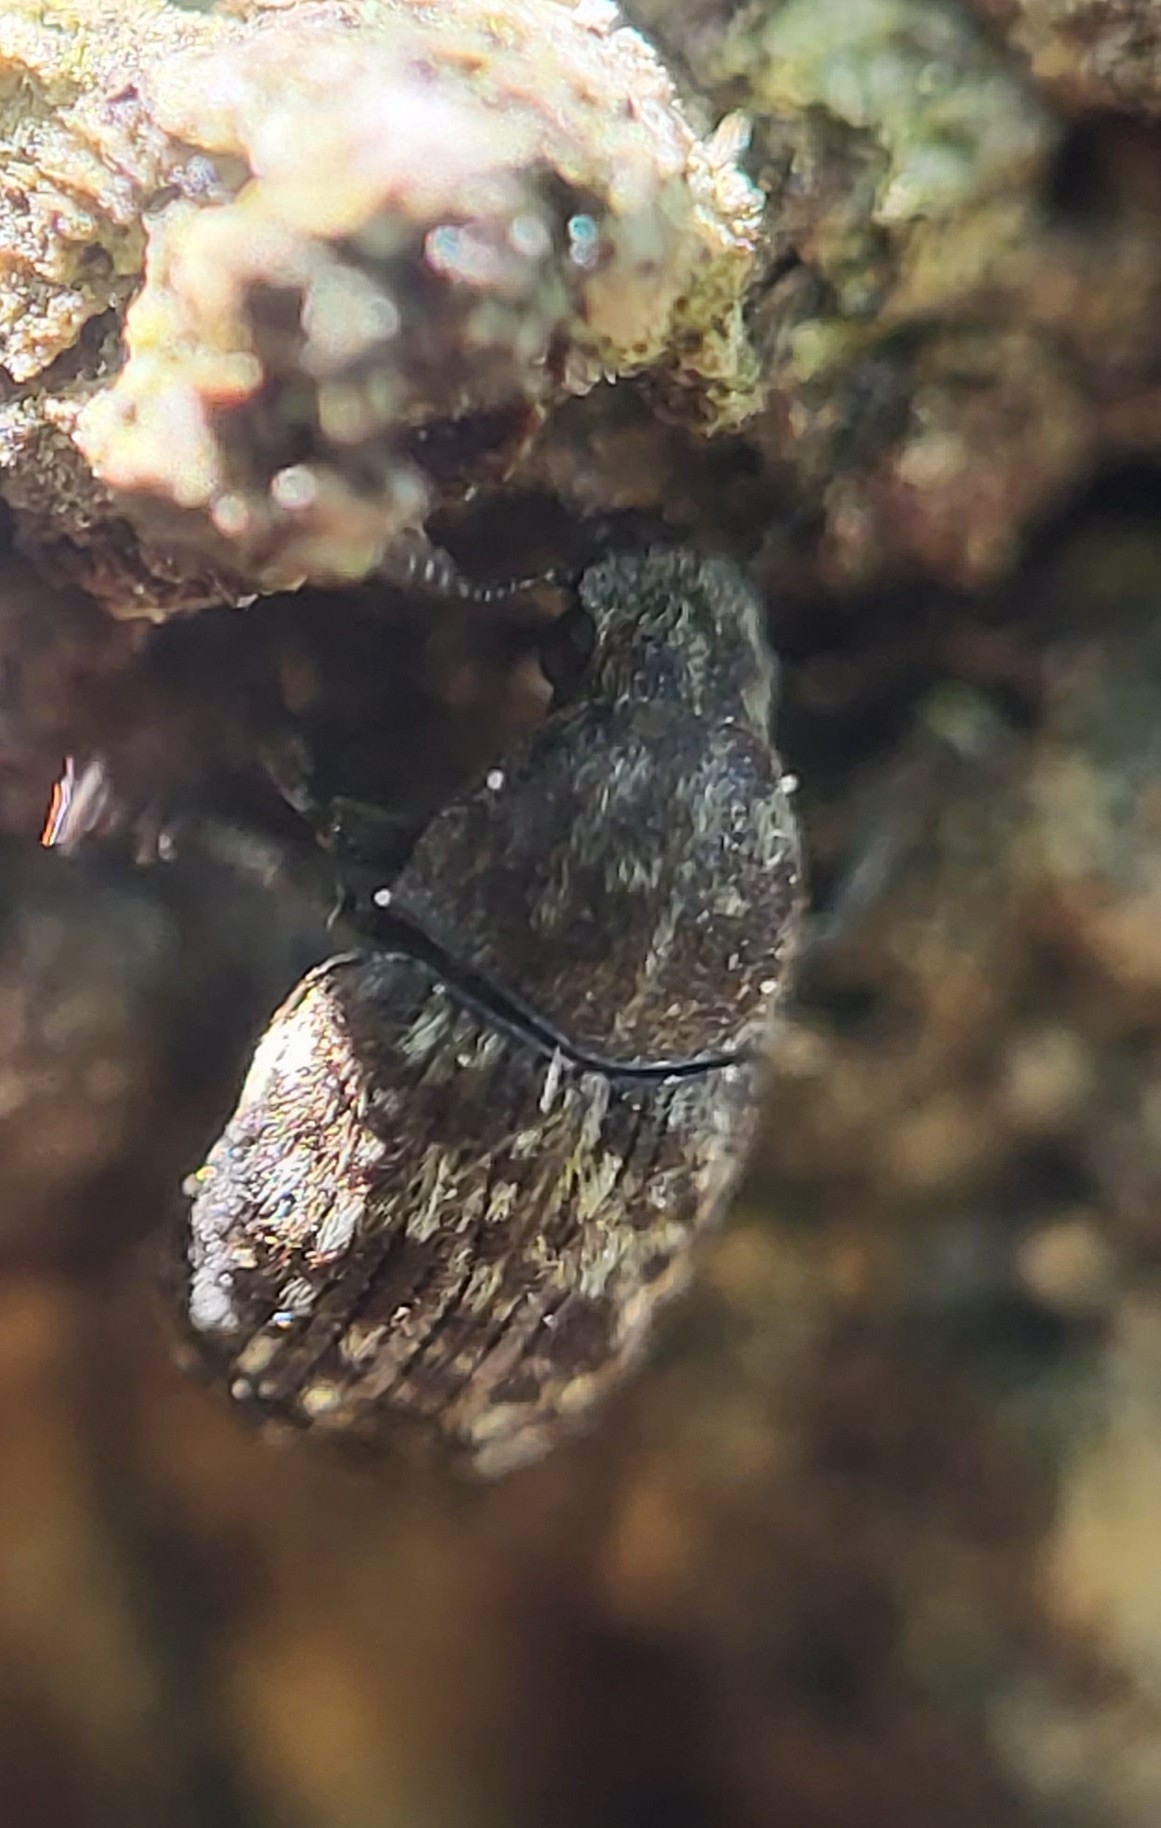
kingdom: Animalia
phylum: Arthropoda
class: Insecta
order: Coleoptera
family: Anthribidae
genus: Anthribus
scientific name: Anthribus nebulosus
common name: Fungus weevil
